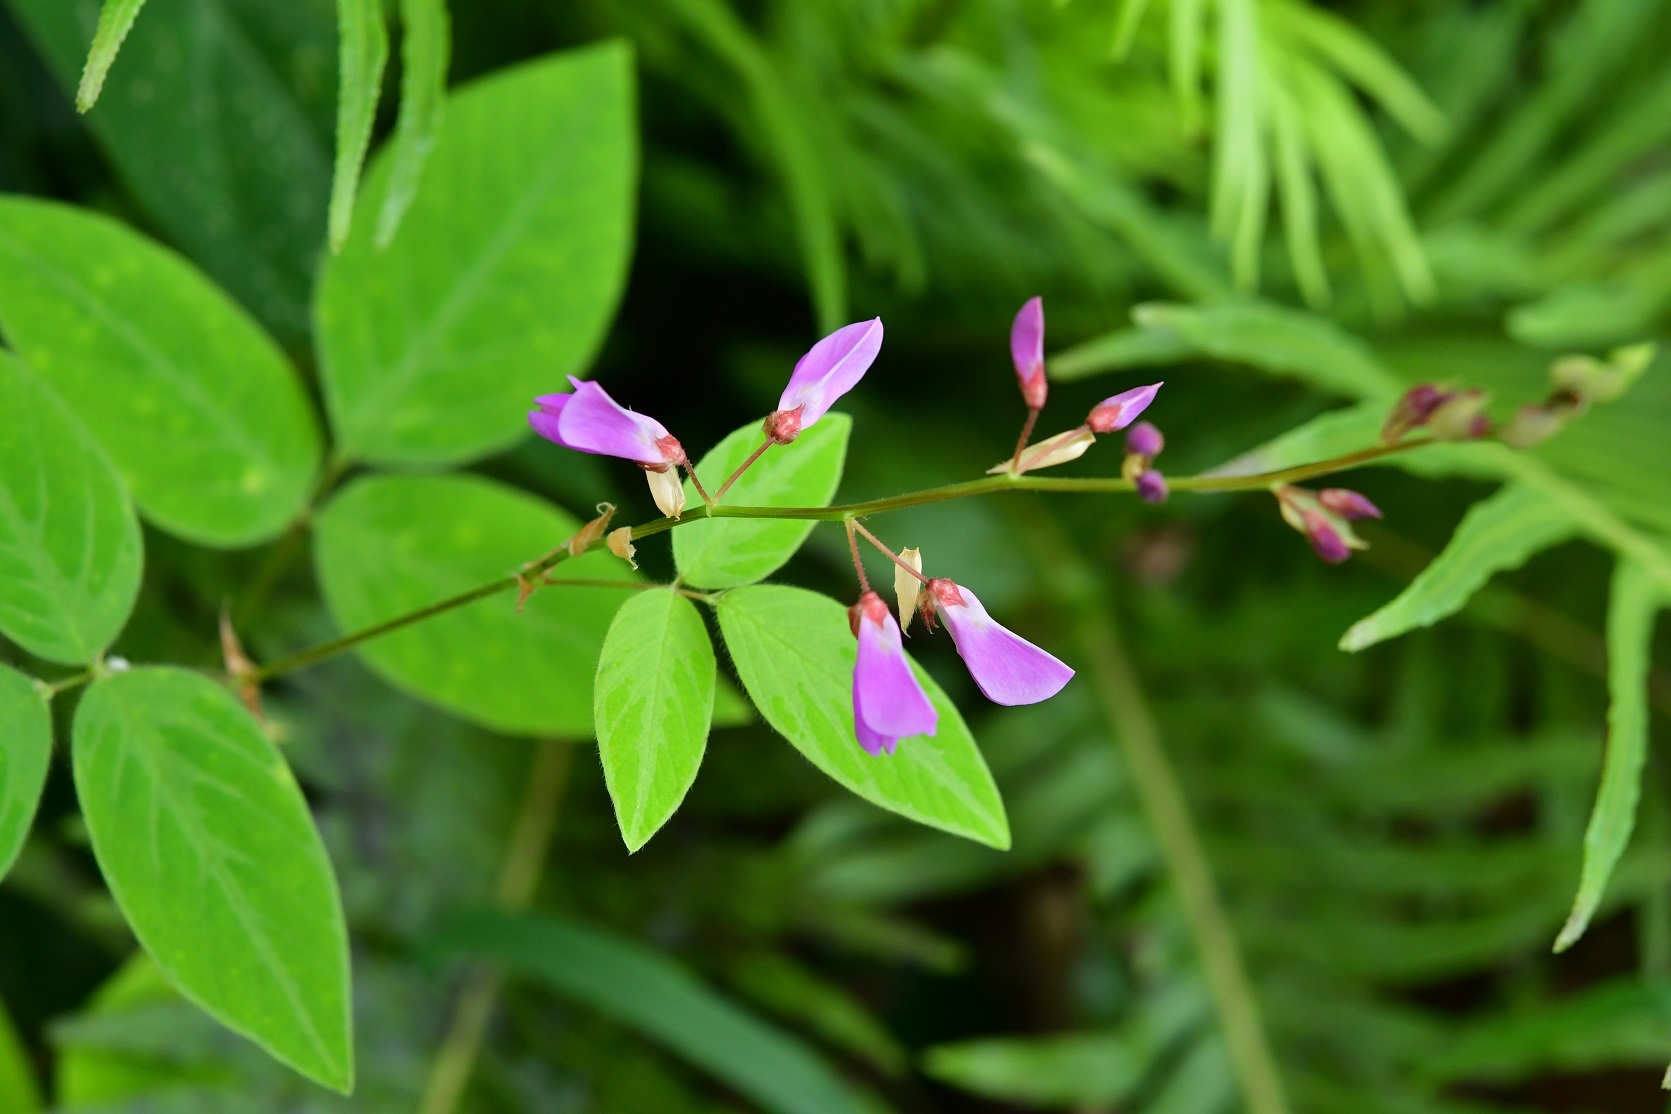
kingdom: Plantae
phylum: Tracheophyta
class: Magnoliopsida
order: Fabales
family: Fabaceae
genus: Desmodium
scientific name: Desmodium pringlei
